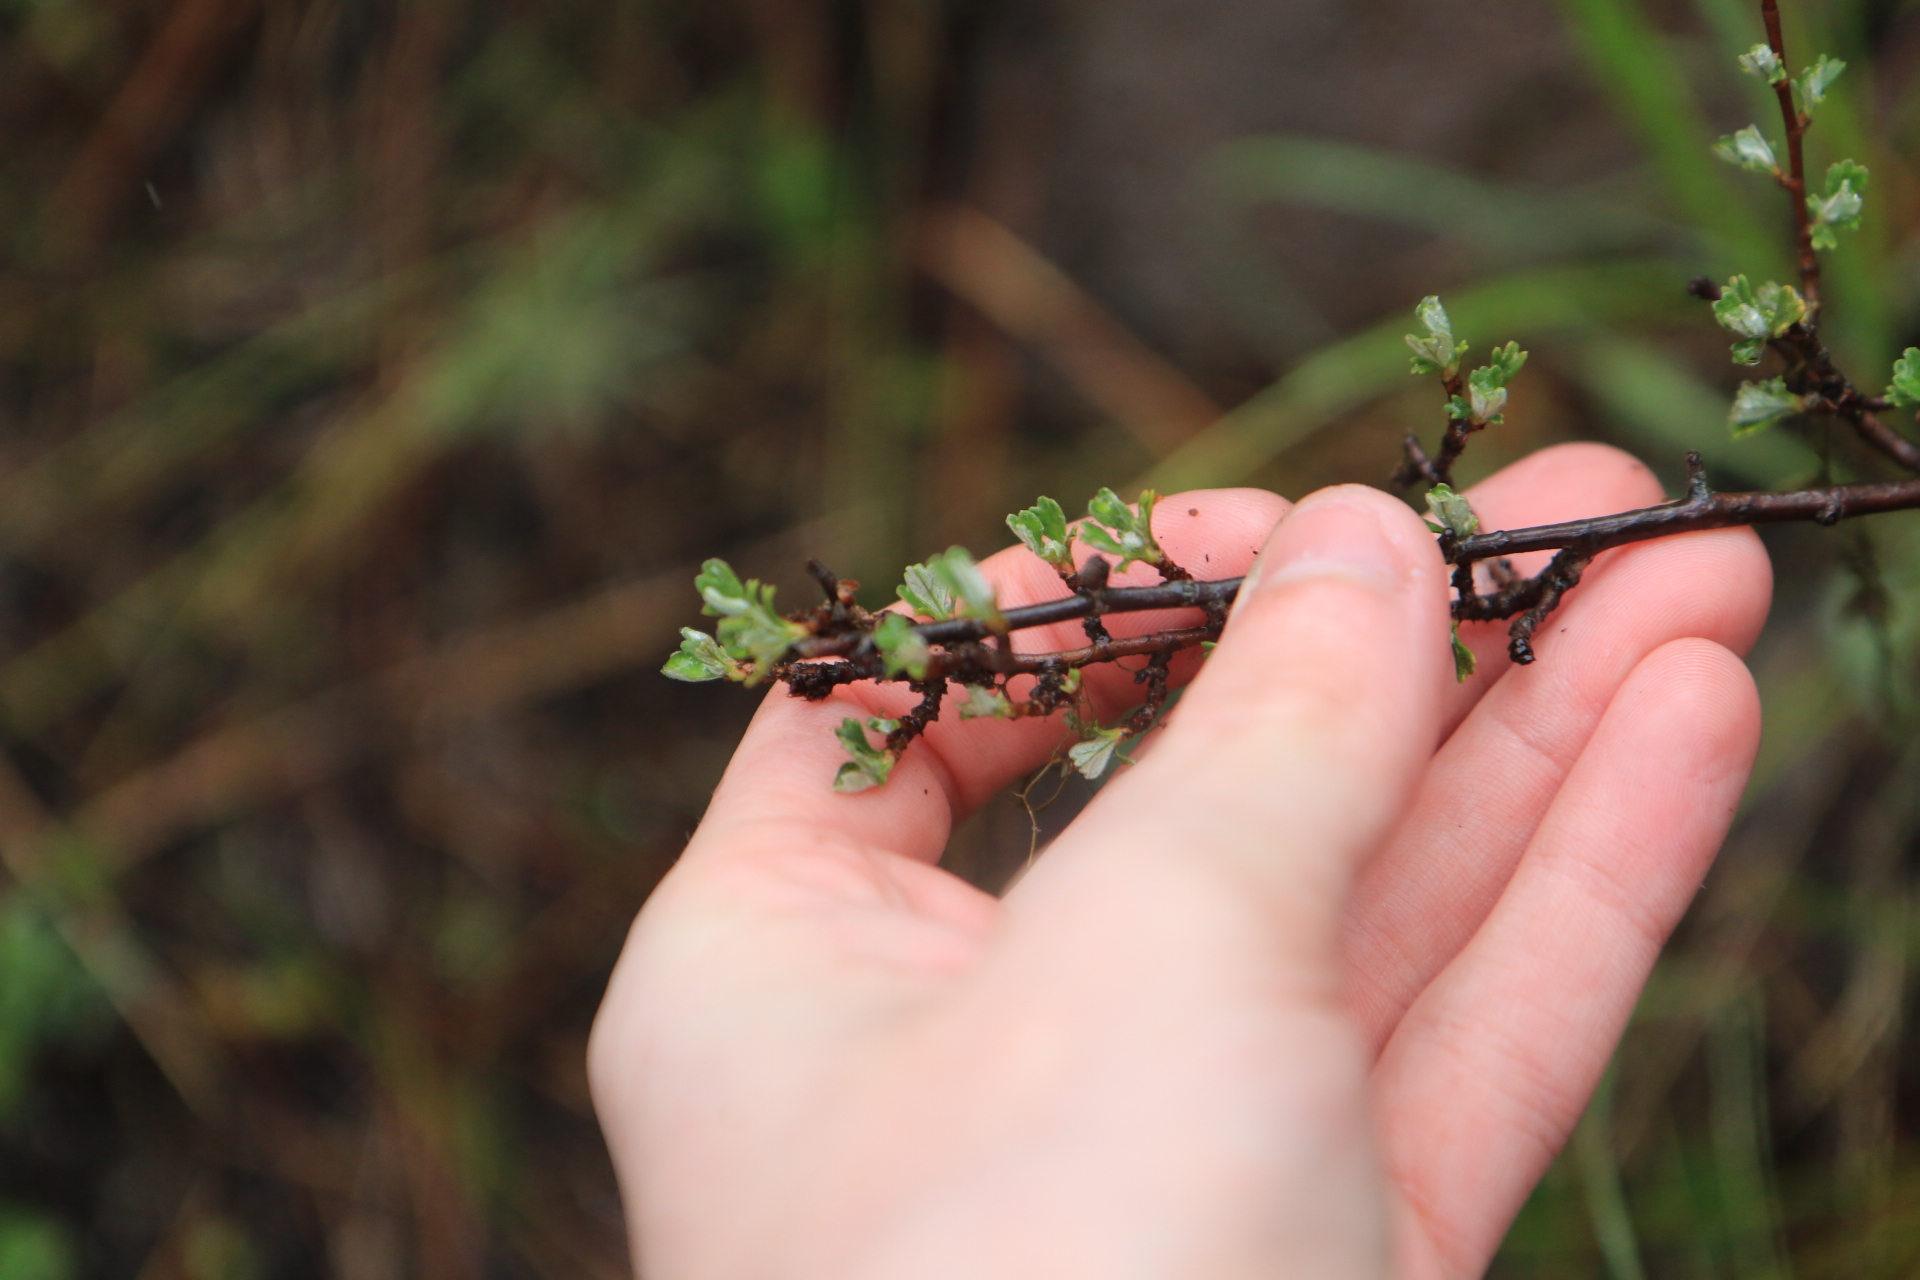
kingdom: Plantae
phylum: Tracheophyta
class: Magnoliopsida
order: Rosales
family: Rosaceae
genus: Purshia
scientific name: Purshia tridentata
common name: Antelope bitterbrush
